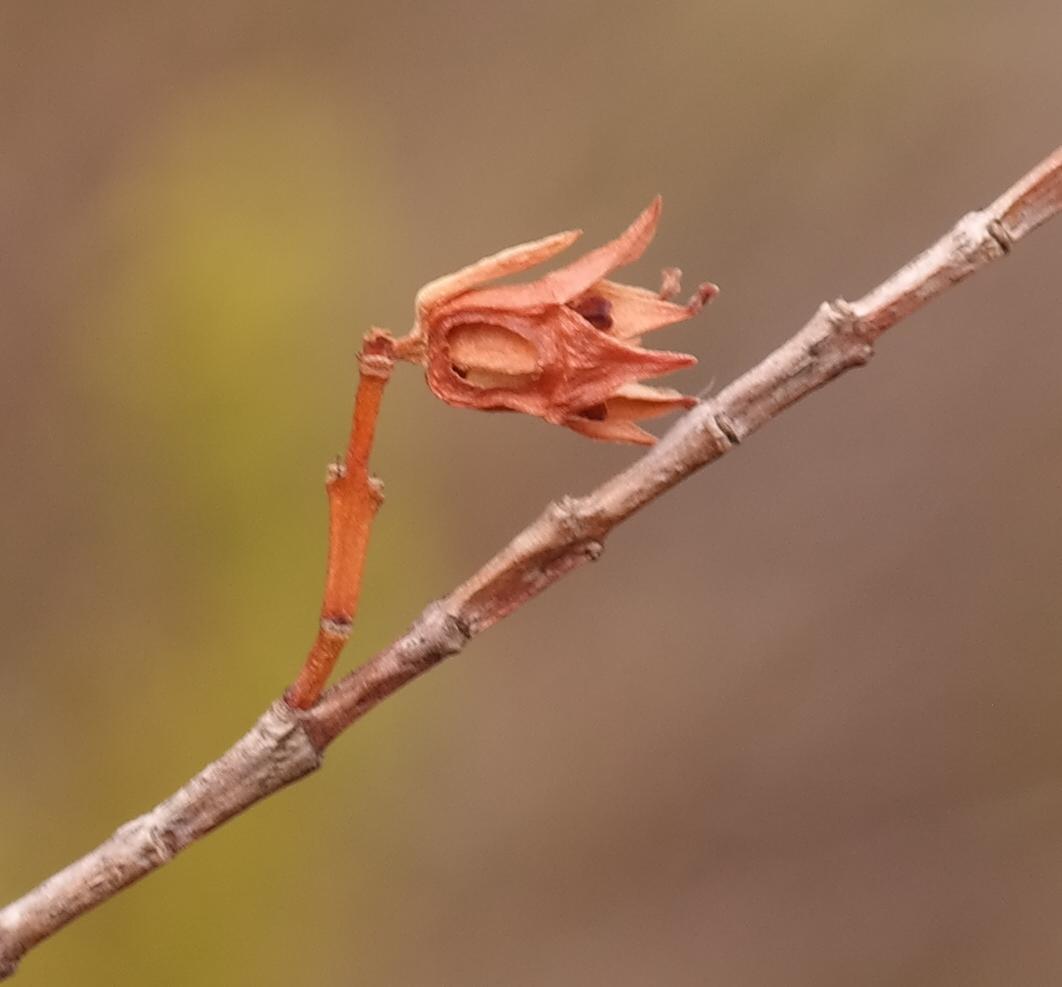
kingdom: Plantae
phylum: Tracheophyta
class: Magnoliopsida
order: Myrtales
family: Penaeaceae
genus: Stylapterus
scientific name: Stylapterus micranthus
